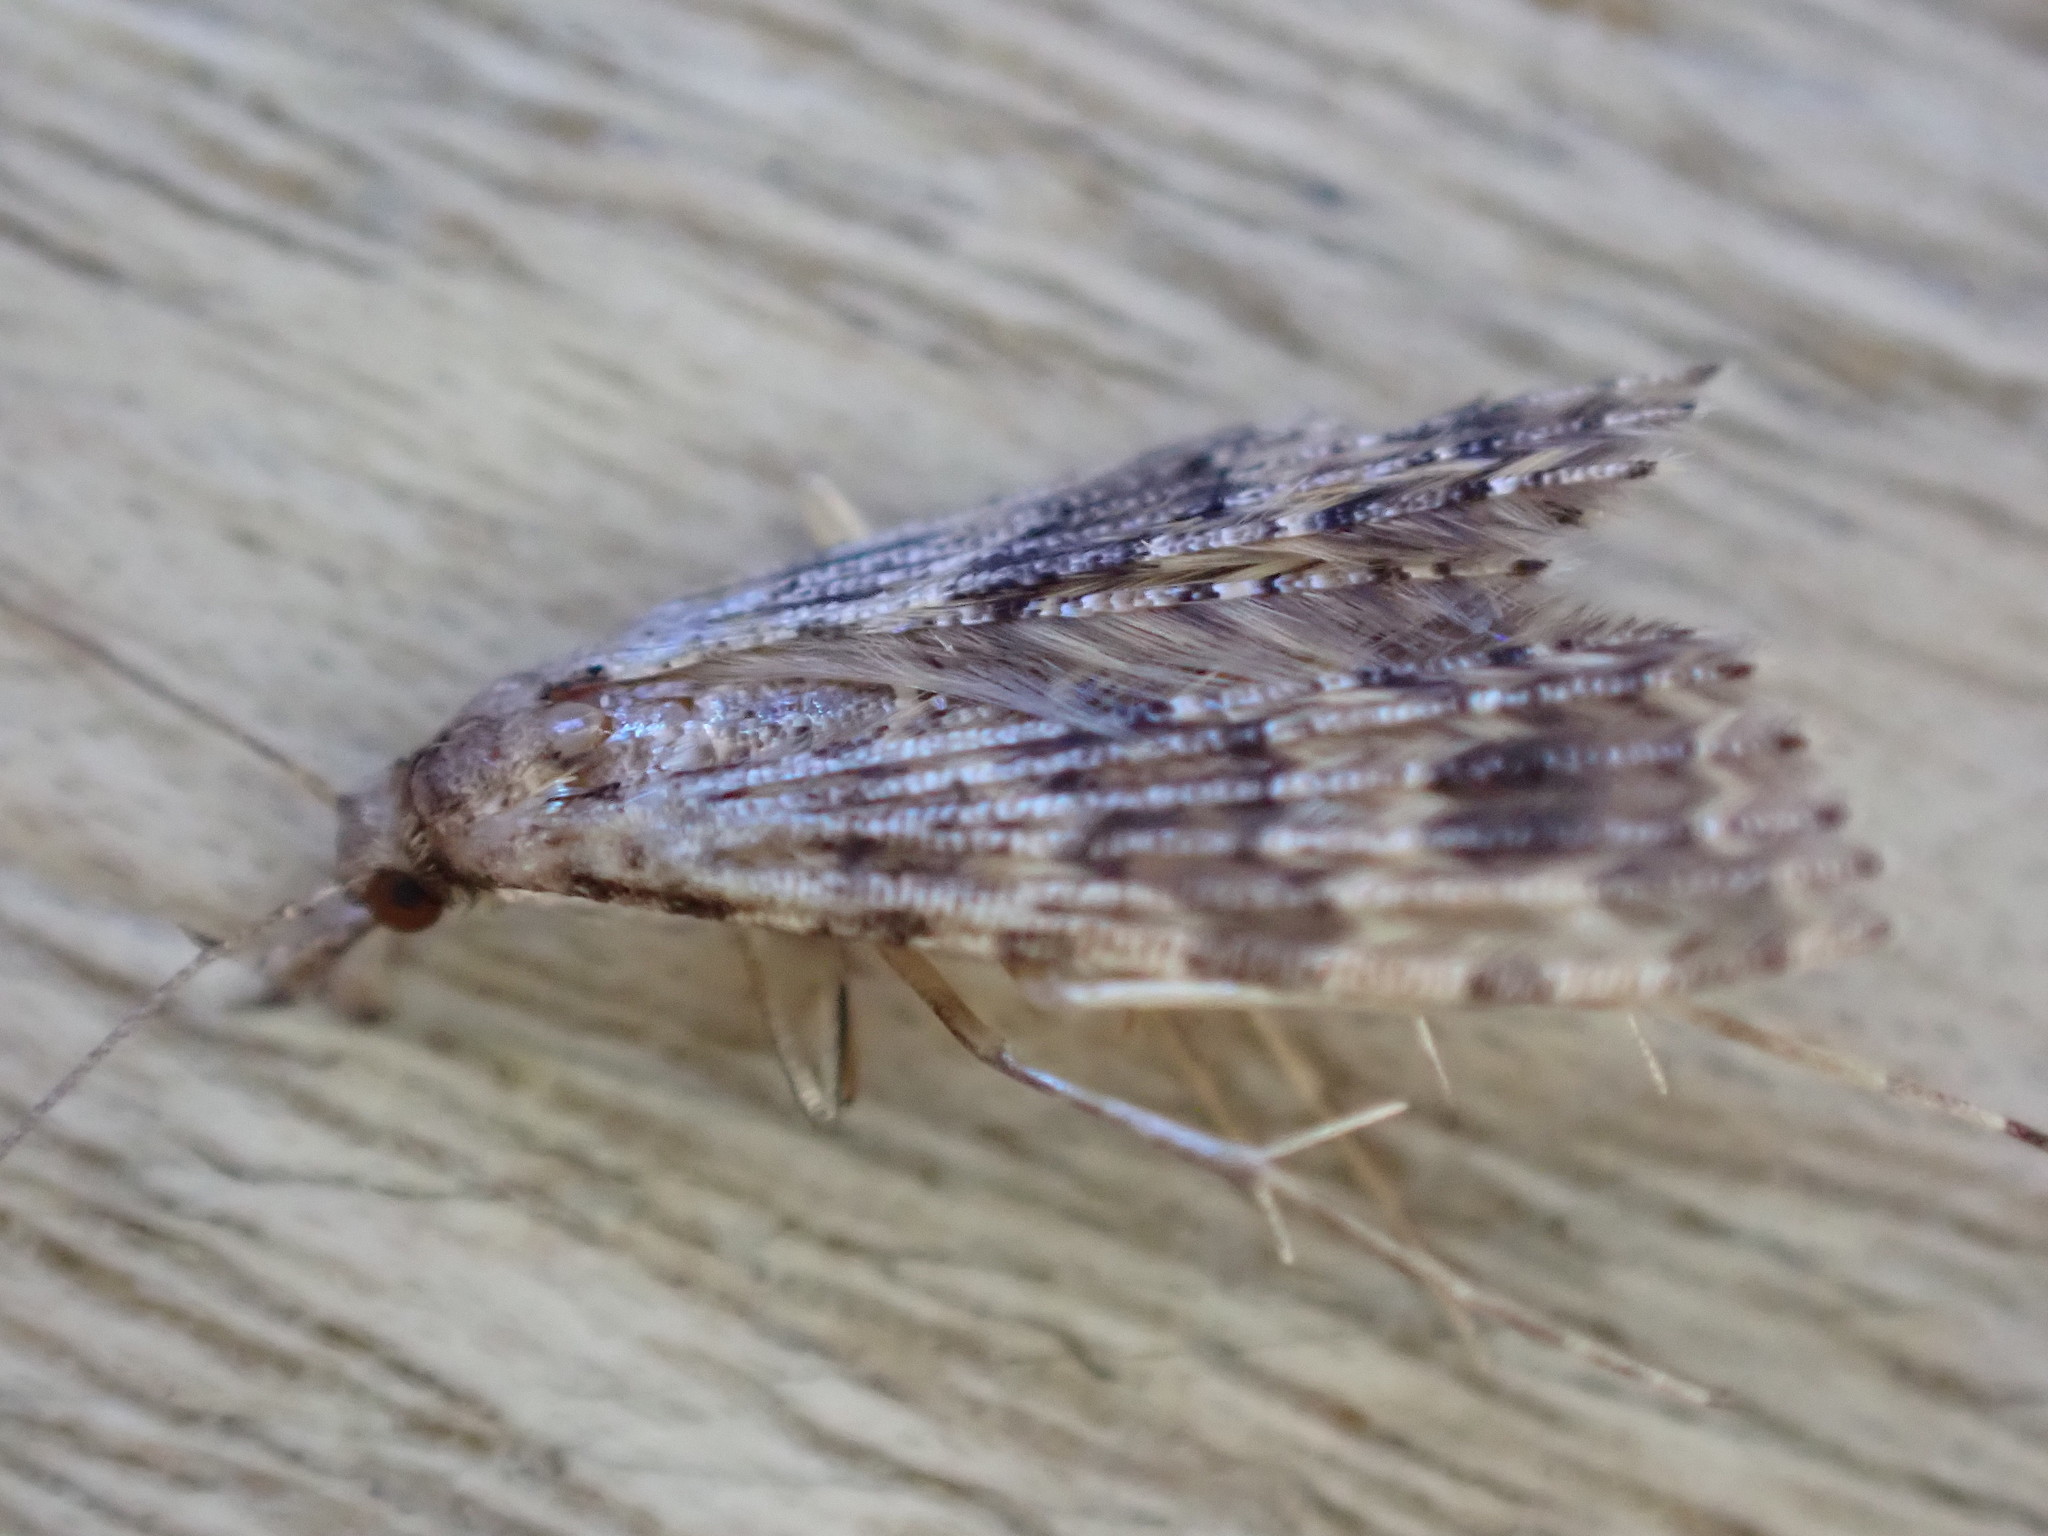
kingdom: Animalia
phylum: Arthropoda
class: Insecta
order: Lepidoptera
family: Alucitidae
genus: Alucita
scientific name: Alucita hexadactyla
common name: Twenty-plume moth
